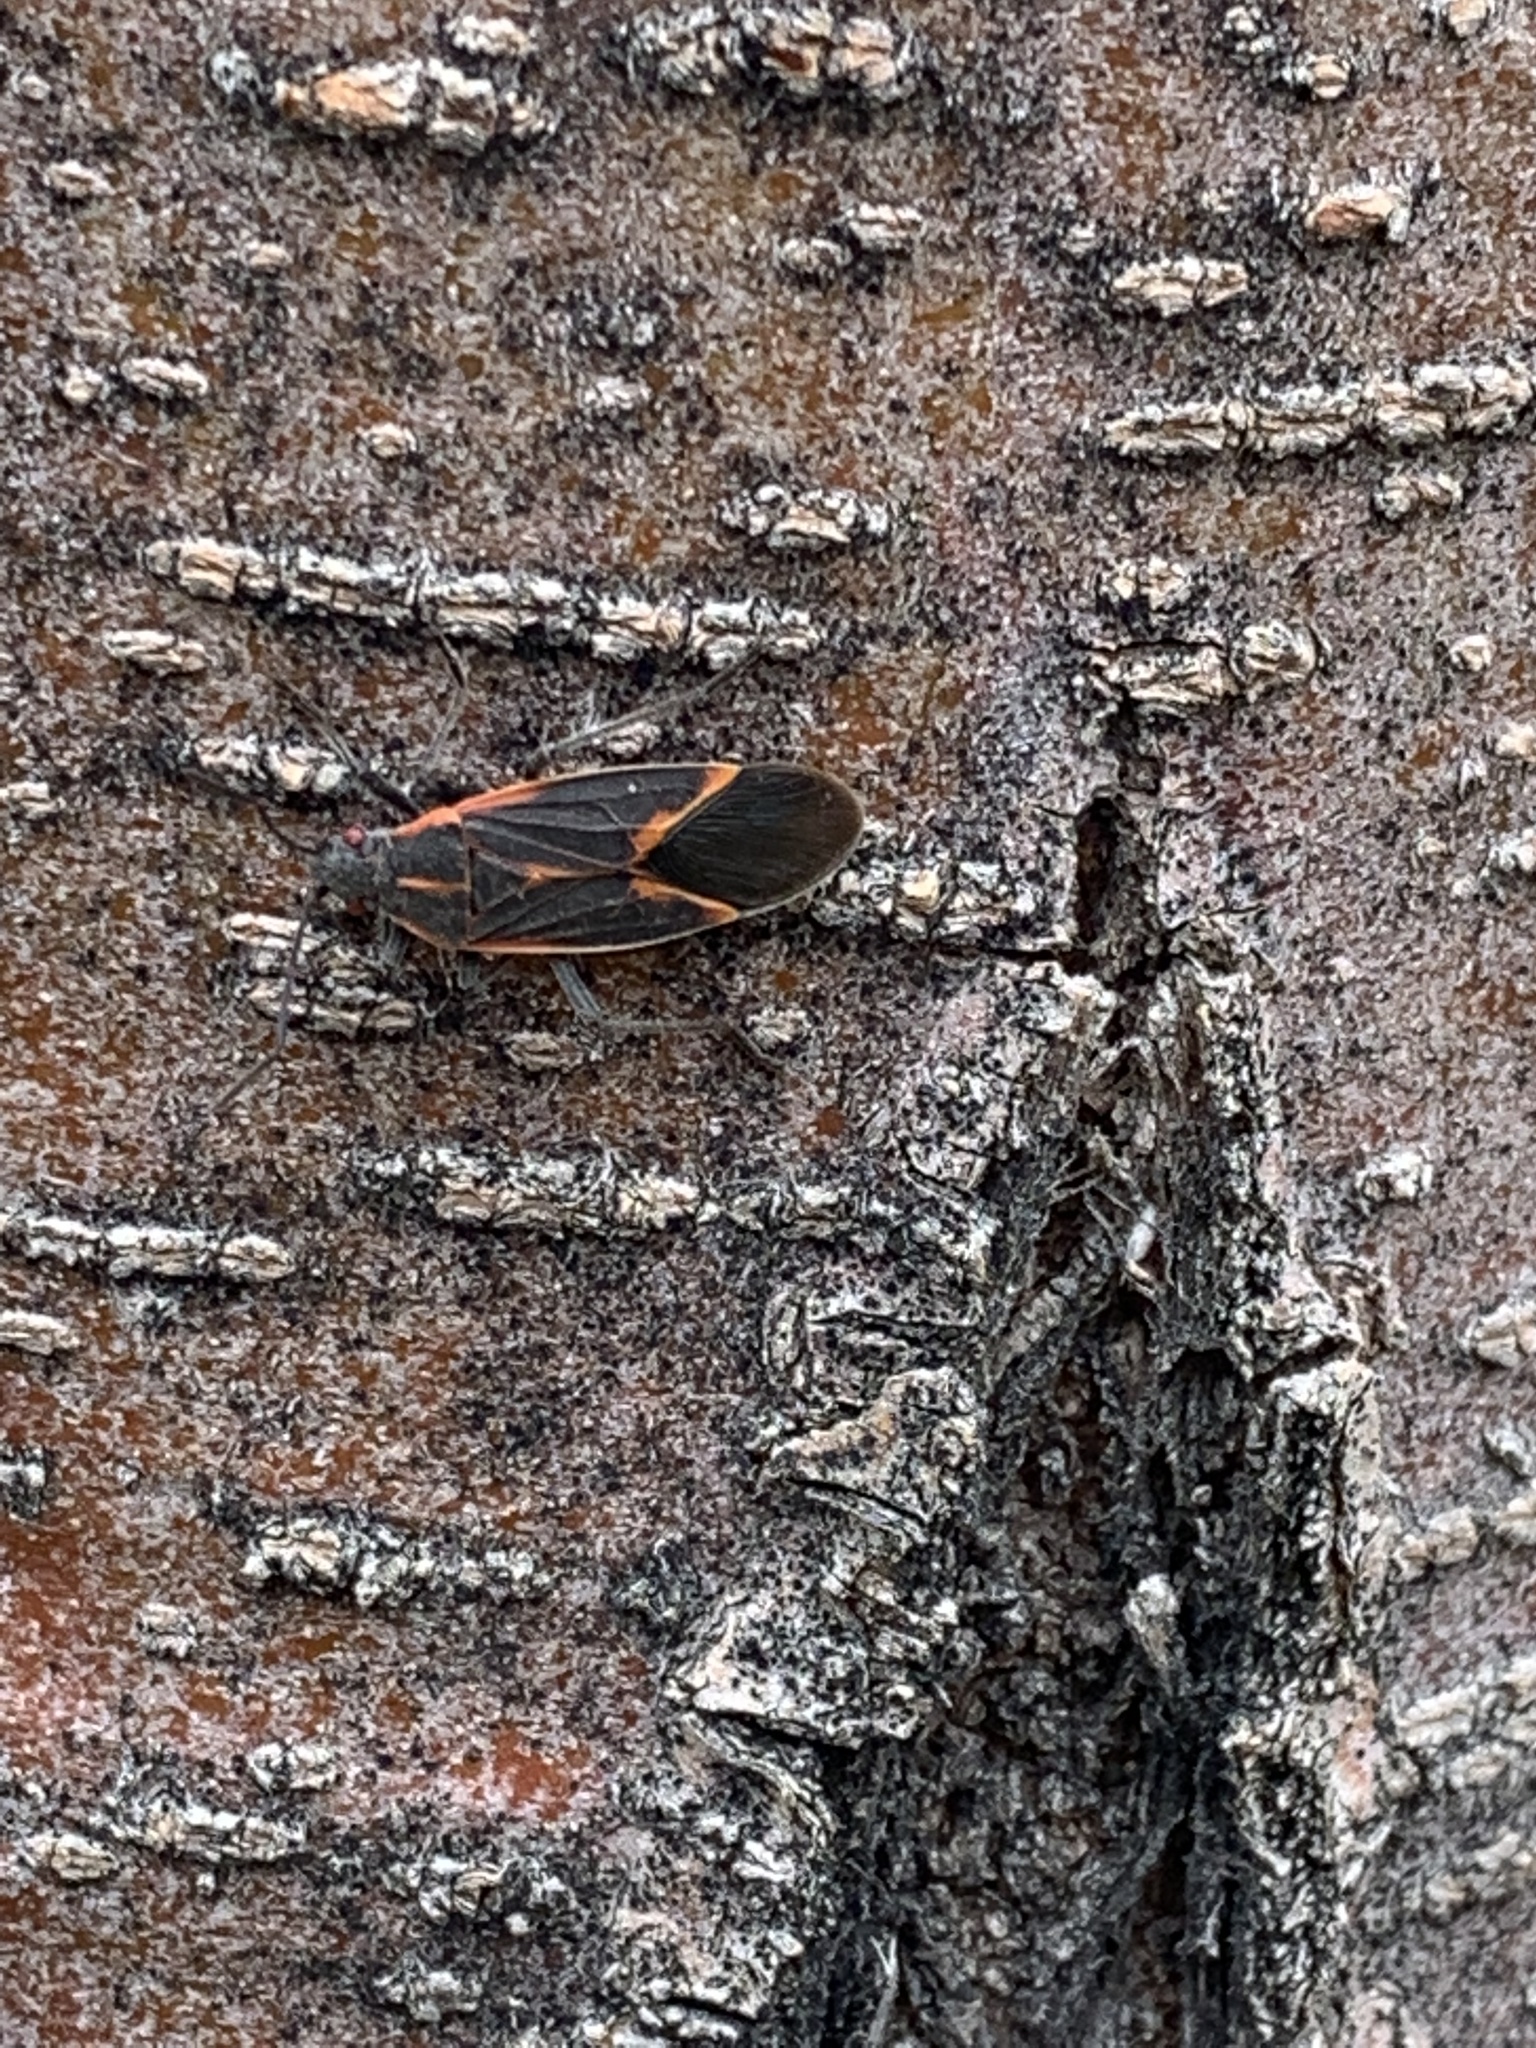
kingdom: Animalia
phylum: Arthropoda
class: Insecta
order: Hemiptera
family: Rhopalidae
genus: Boisea
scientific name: Boisea trivittata
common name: Boxelder bug
